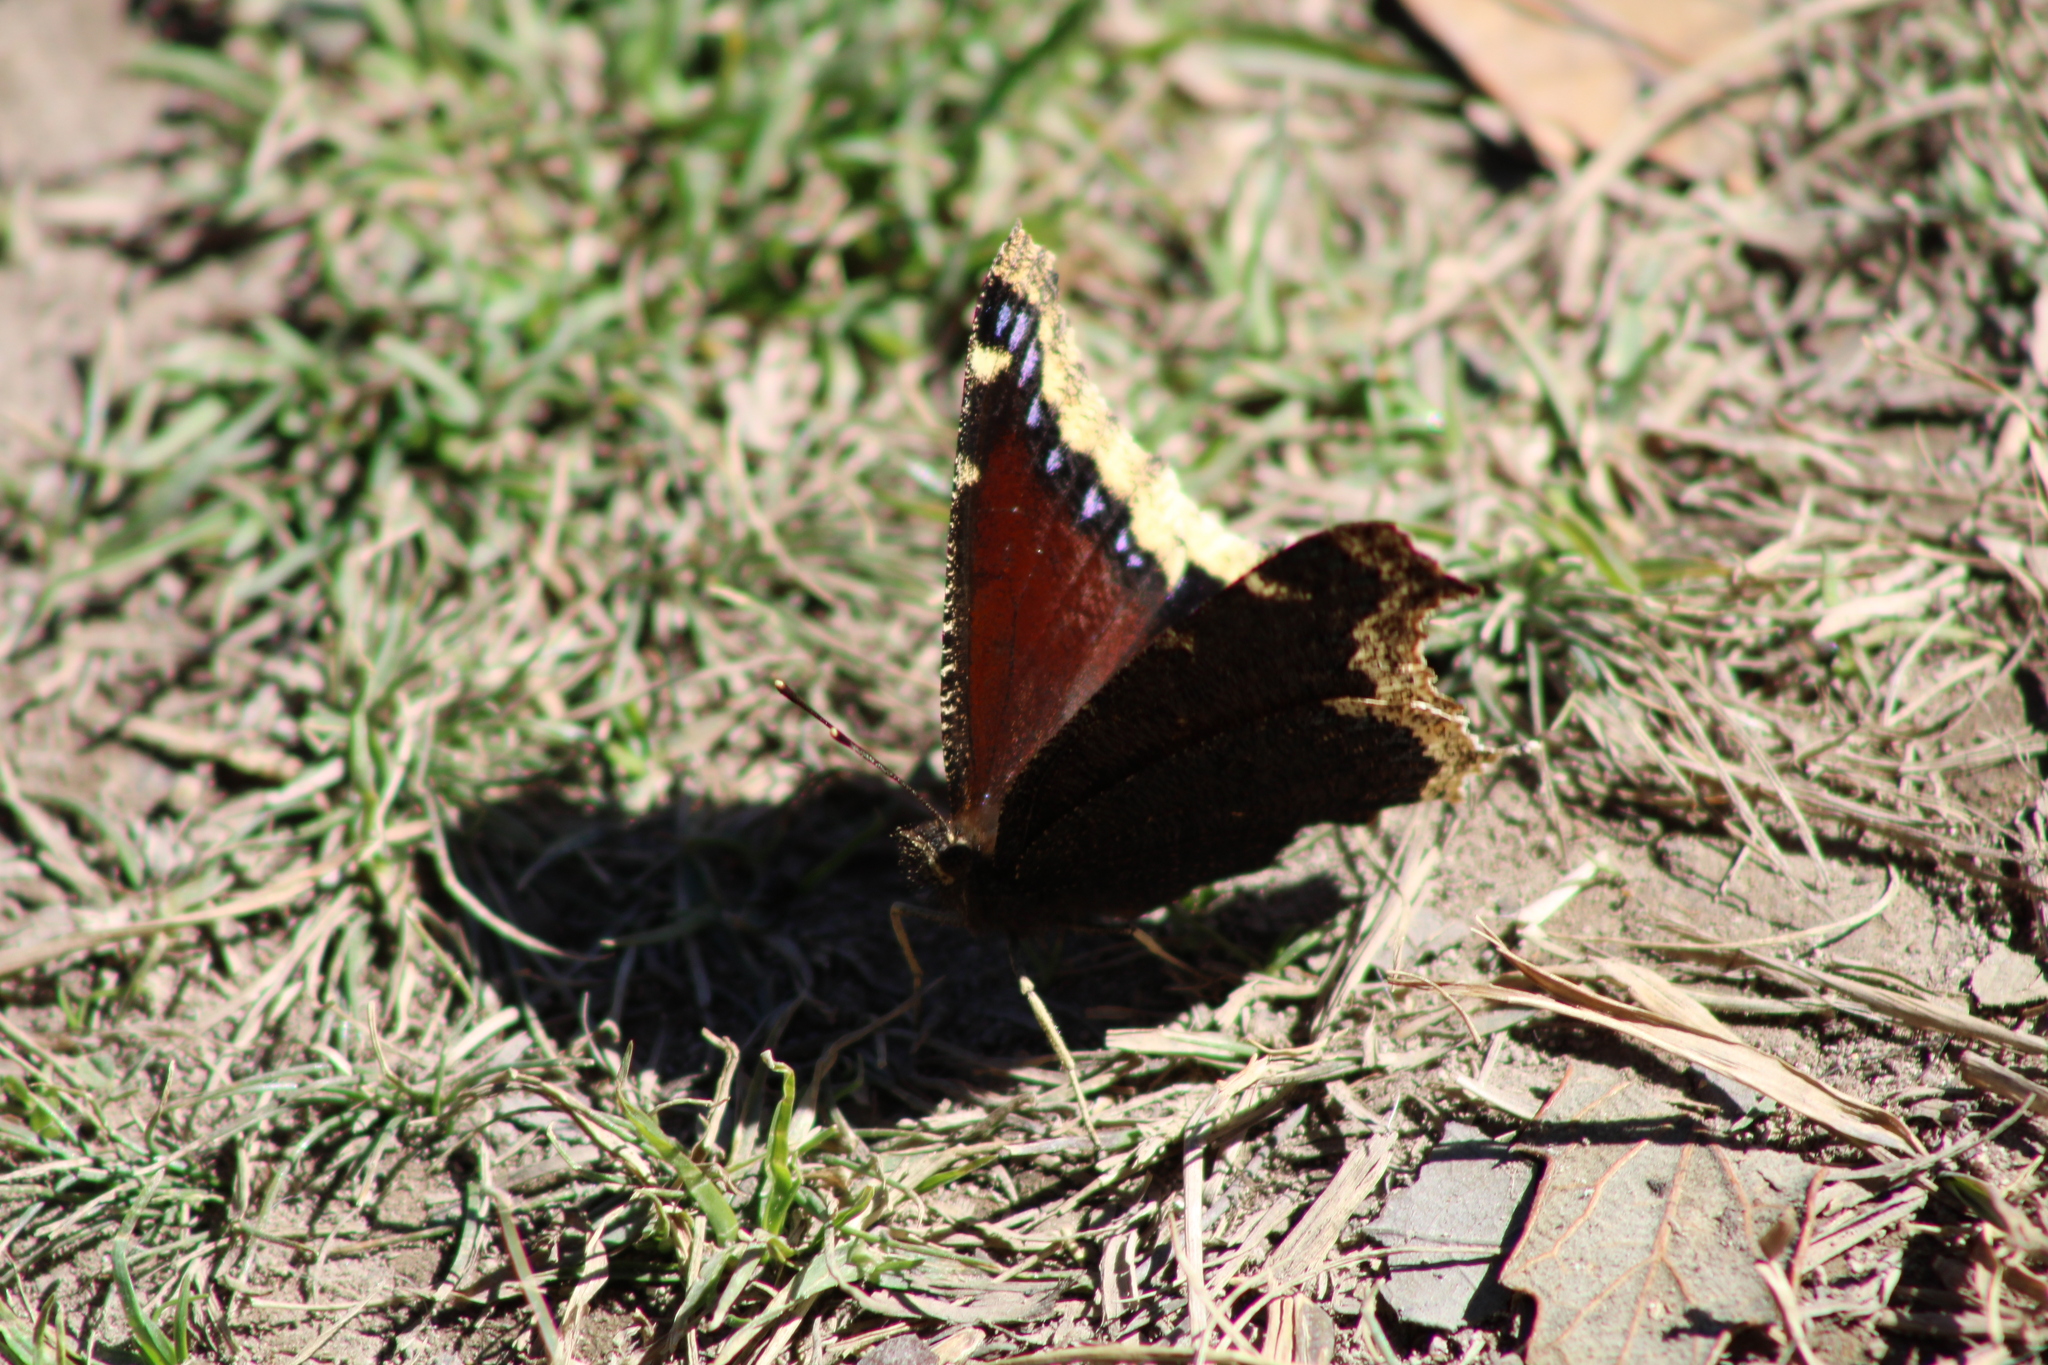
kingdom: Animalia
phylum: Arthropoda
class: Insecta
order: Lepidoptera
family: Nymphalidae
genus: Nymphalis
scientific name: Nymphalis antiopa
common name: Camberwell beauty
